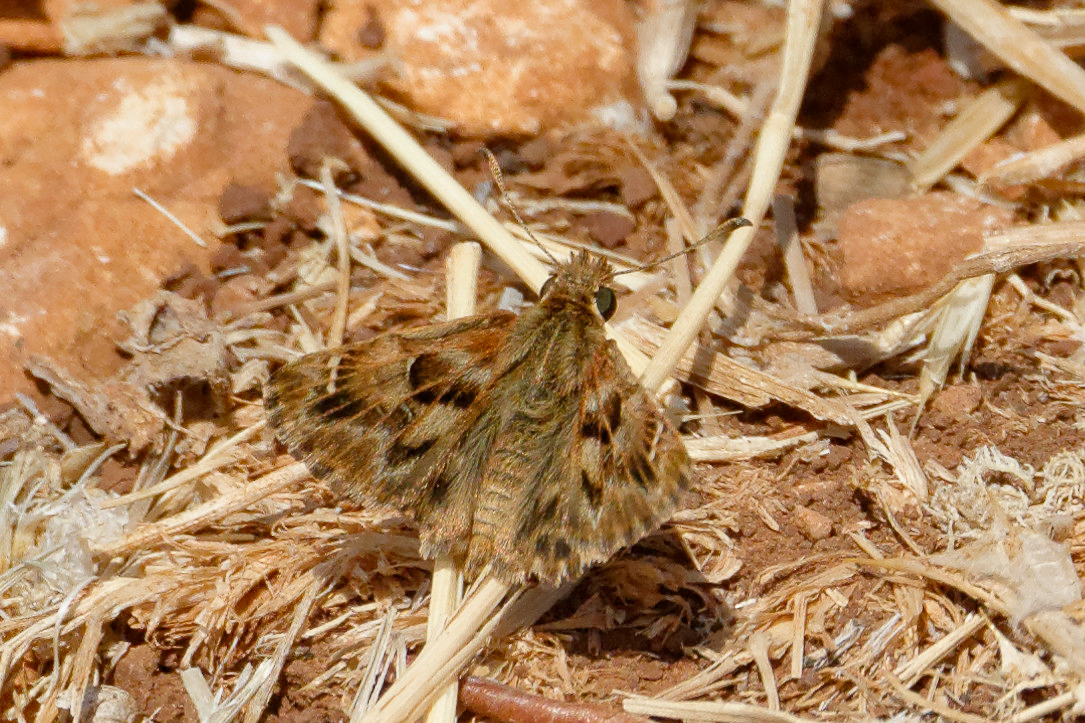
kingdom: Animalia
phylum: Arthropoda
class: Insecta
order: Lepidoptera
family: Hesperiidae
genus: Carcharodus
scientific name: Carcharodus alceae
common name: Mallow skipper
